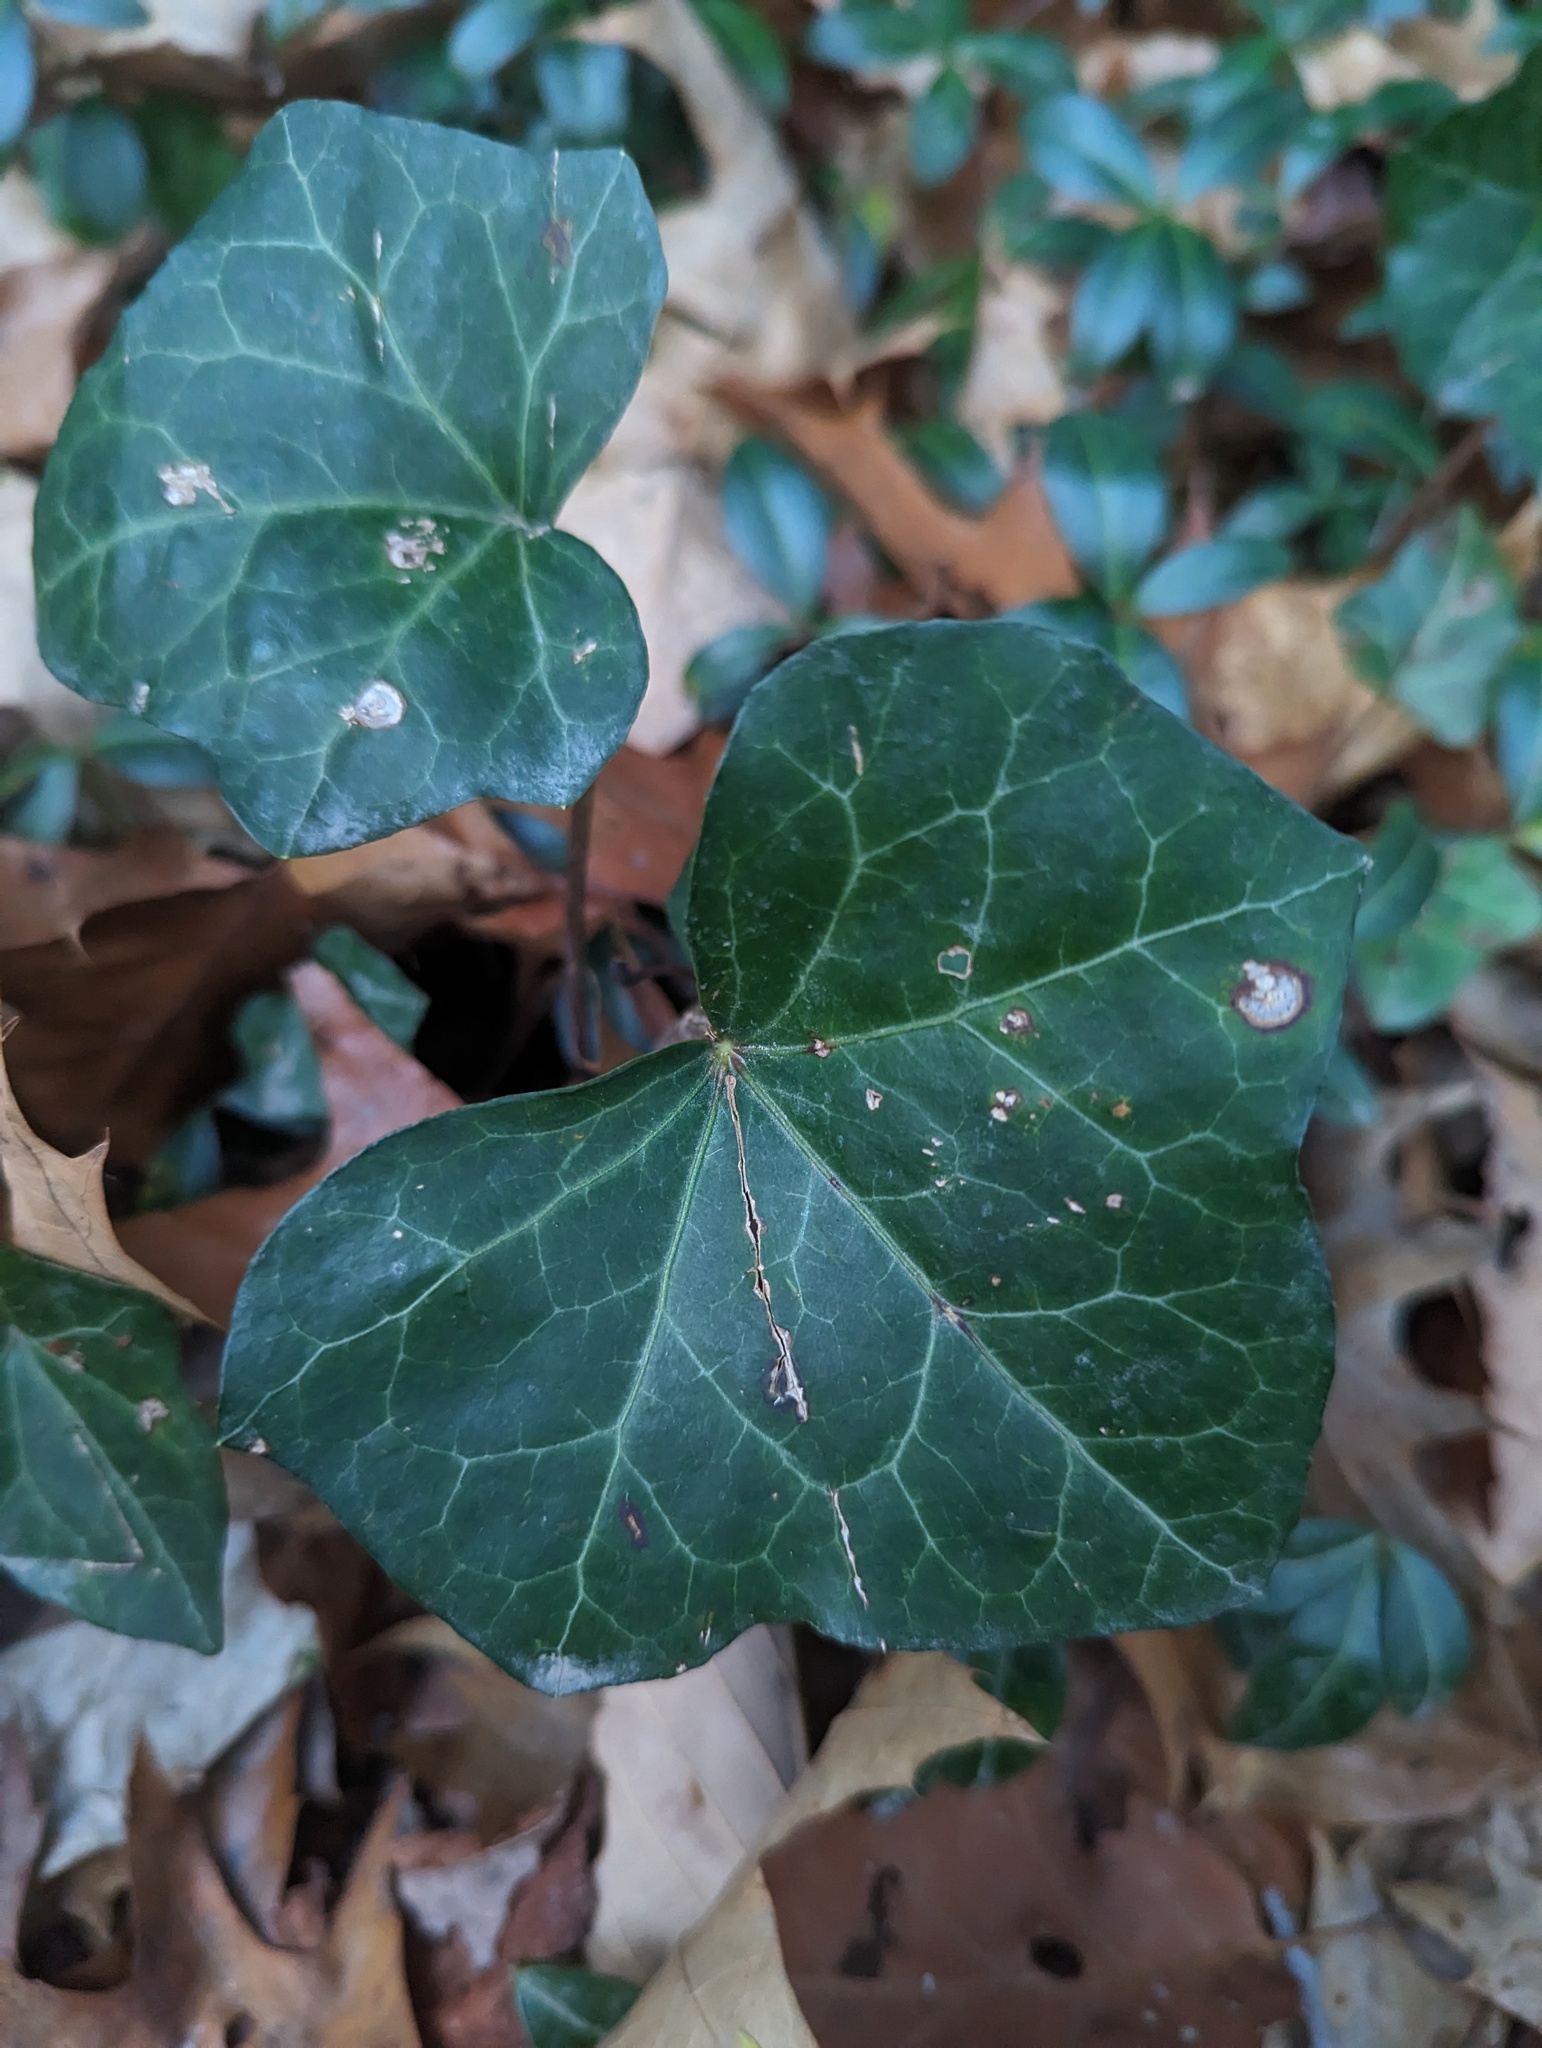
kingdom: Plantae
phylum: Tracheophyta
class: Magnoliopsida
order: Apiales
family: Araliaceae
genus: Hedera
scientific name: Hedera helix
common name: Ivy
